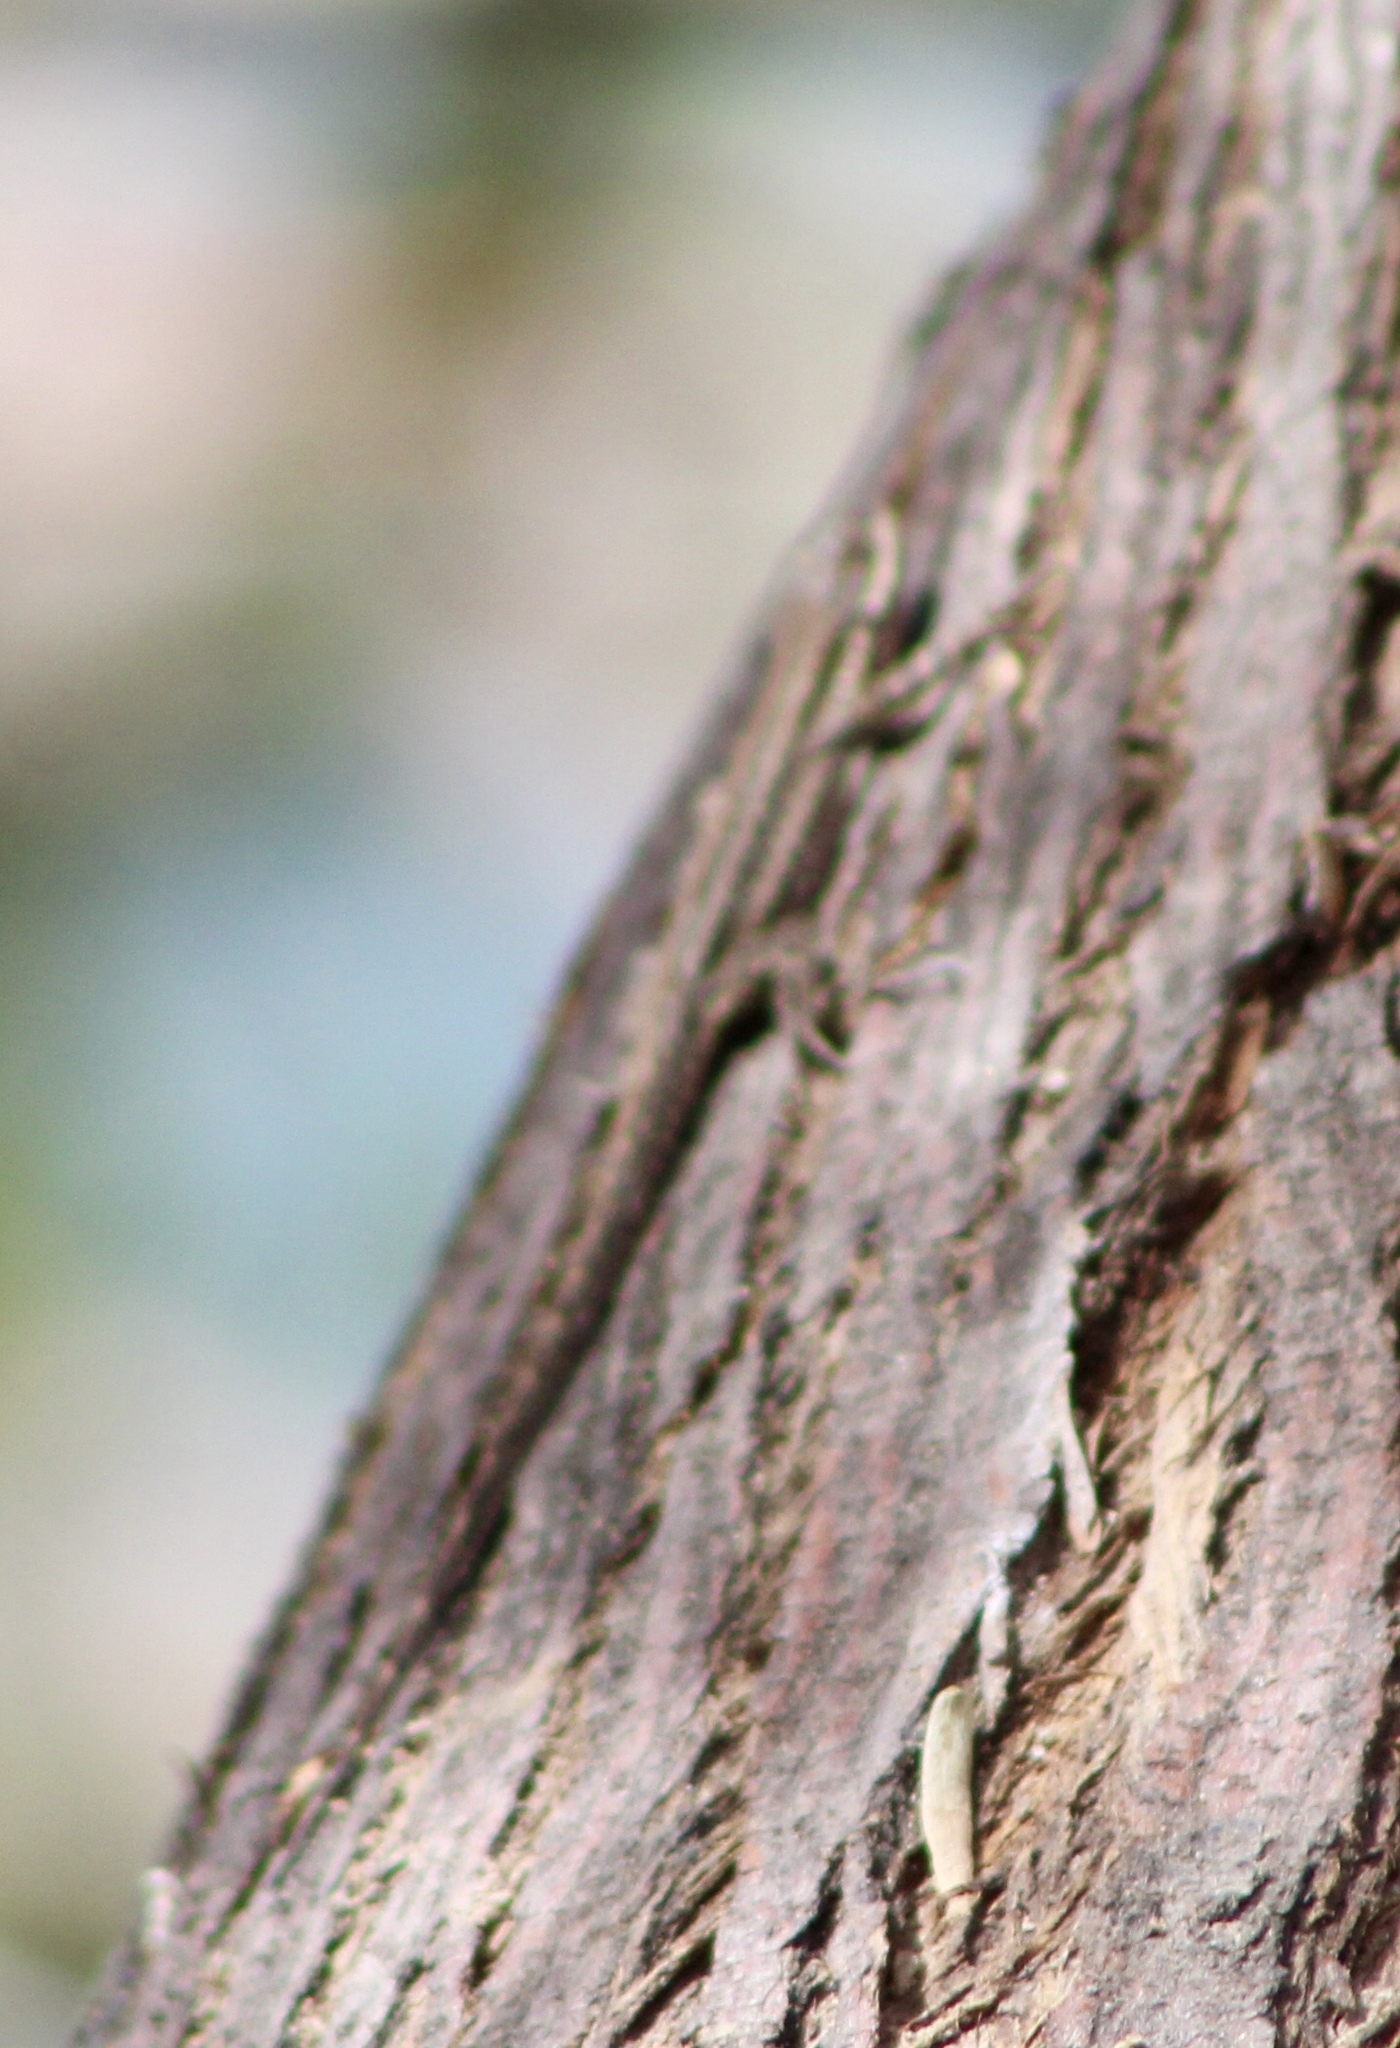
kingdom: Animalia
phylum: Chordata
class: Squamata
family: Phrynosomatidae
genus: Urosaurus
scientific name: Urosaurus ornatus
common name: Ornate tree lizard
